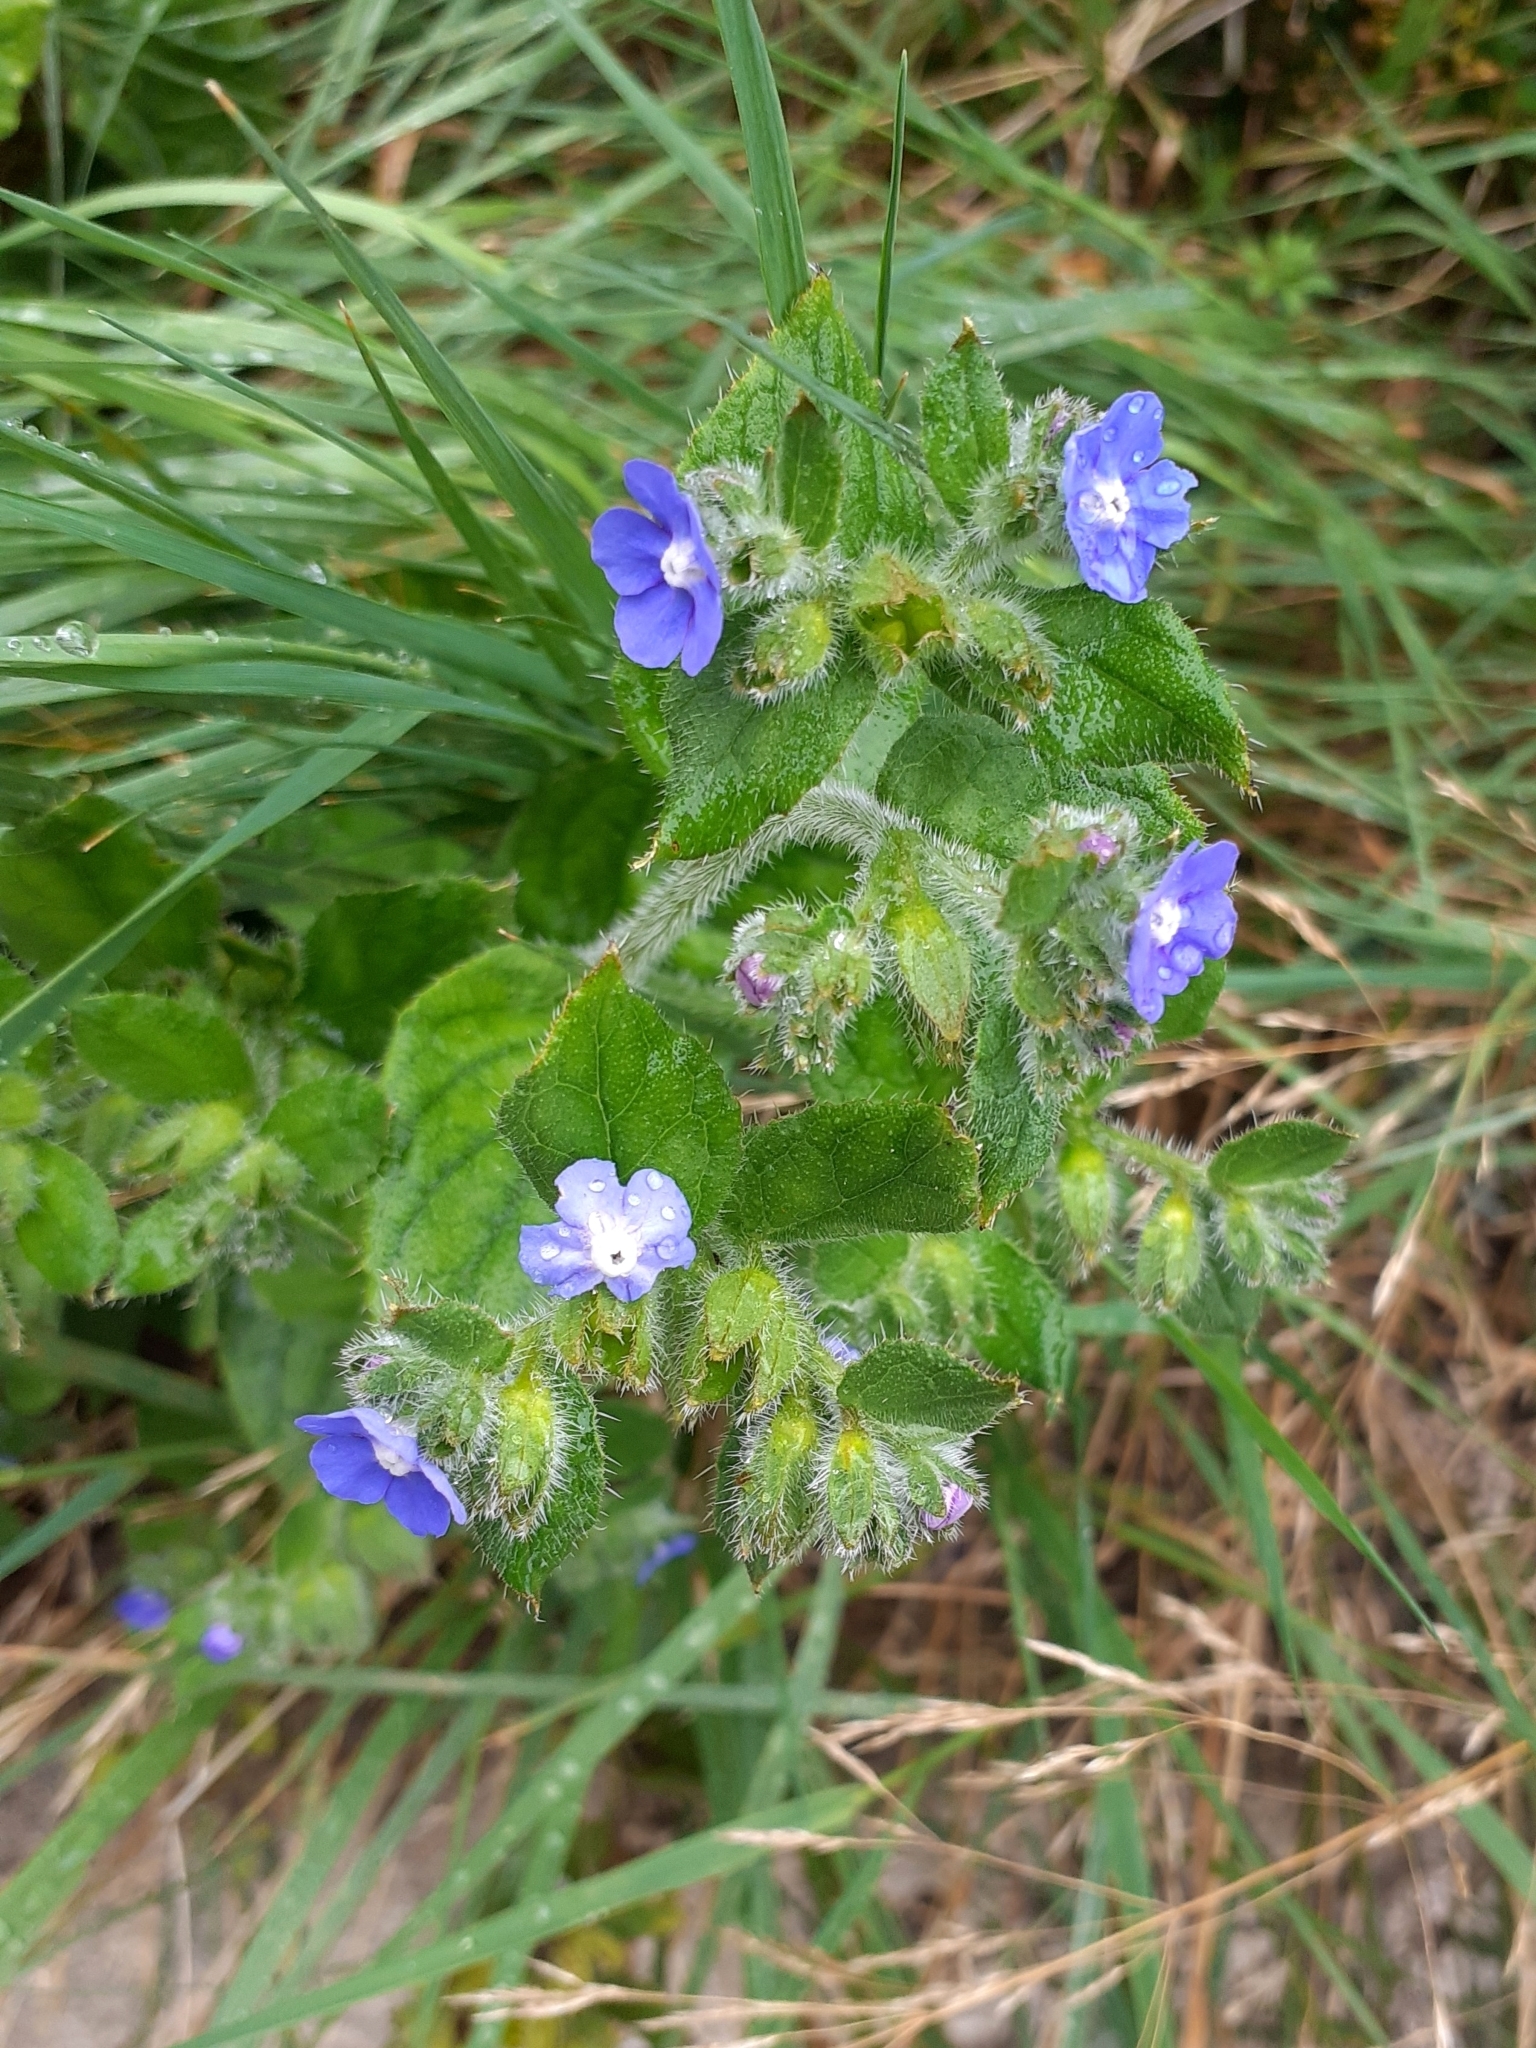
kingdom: Plantae
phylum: Tracheophyta
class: Magnoliopsida
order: Boraginales
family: Boraginaceae
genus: Pentaglottis
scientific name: Pentaglottis sempervirens
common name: Green alkanet
